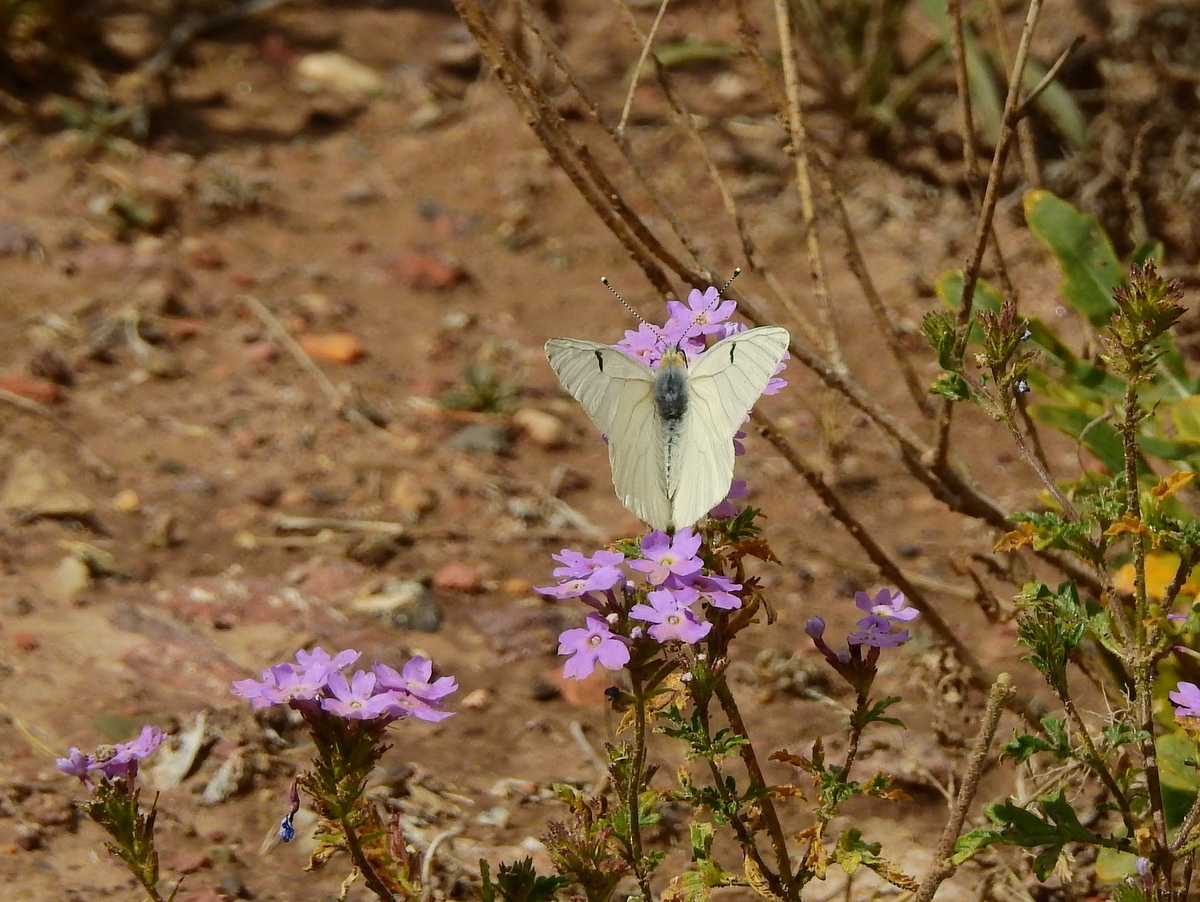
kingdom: Animalia
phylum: Arthropoda
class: Insecta
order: Lepidoptera
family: Pieridae
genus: Tatochila
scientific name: Tatochila mercedis
